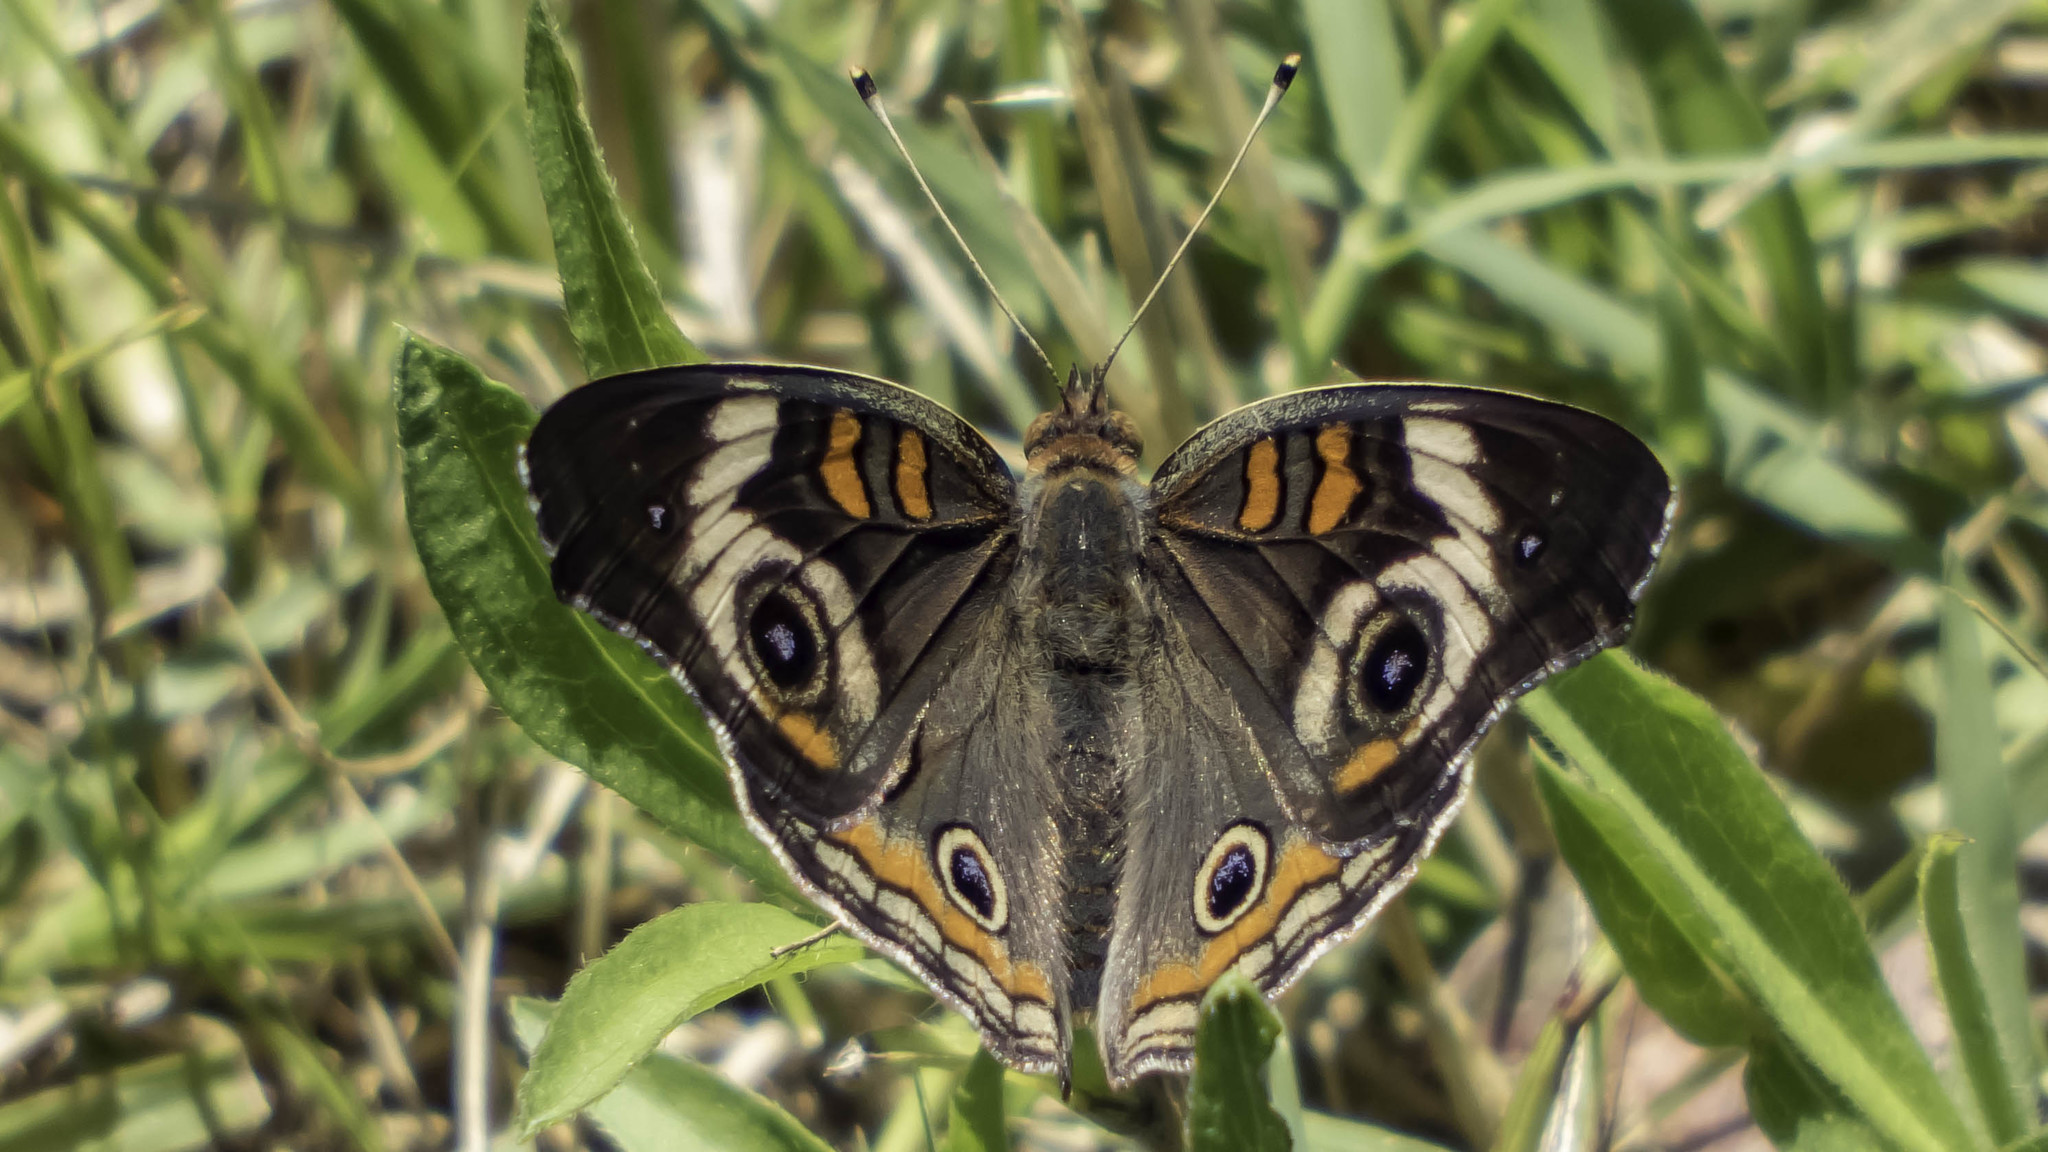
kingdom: Animalia
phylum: Arthropoda
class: Insecta
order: Lepidoptera
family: Nymphalidae
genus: Junonia
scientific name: Junonia coenia
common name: Common buckeye
